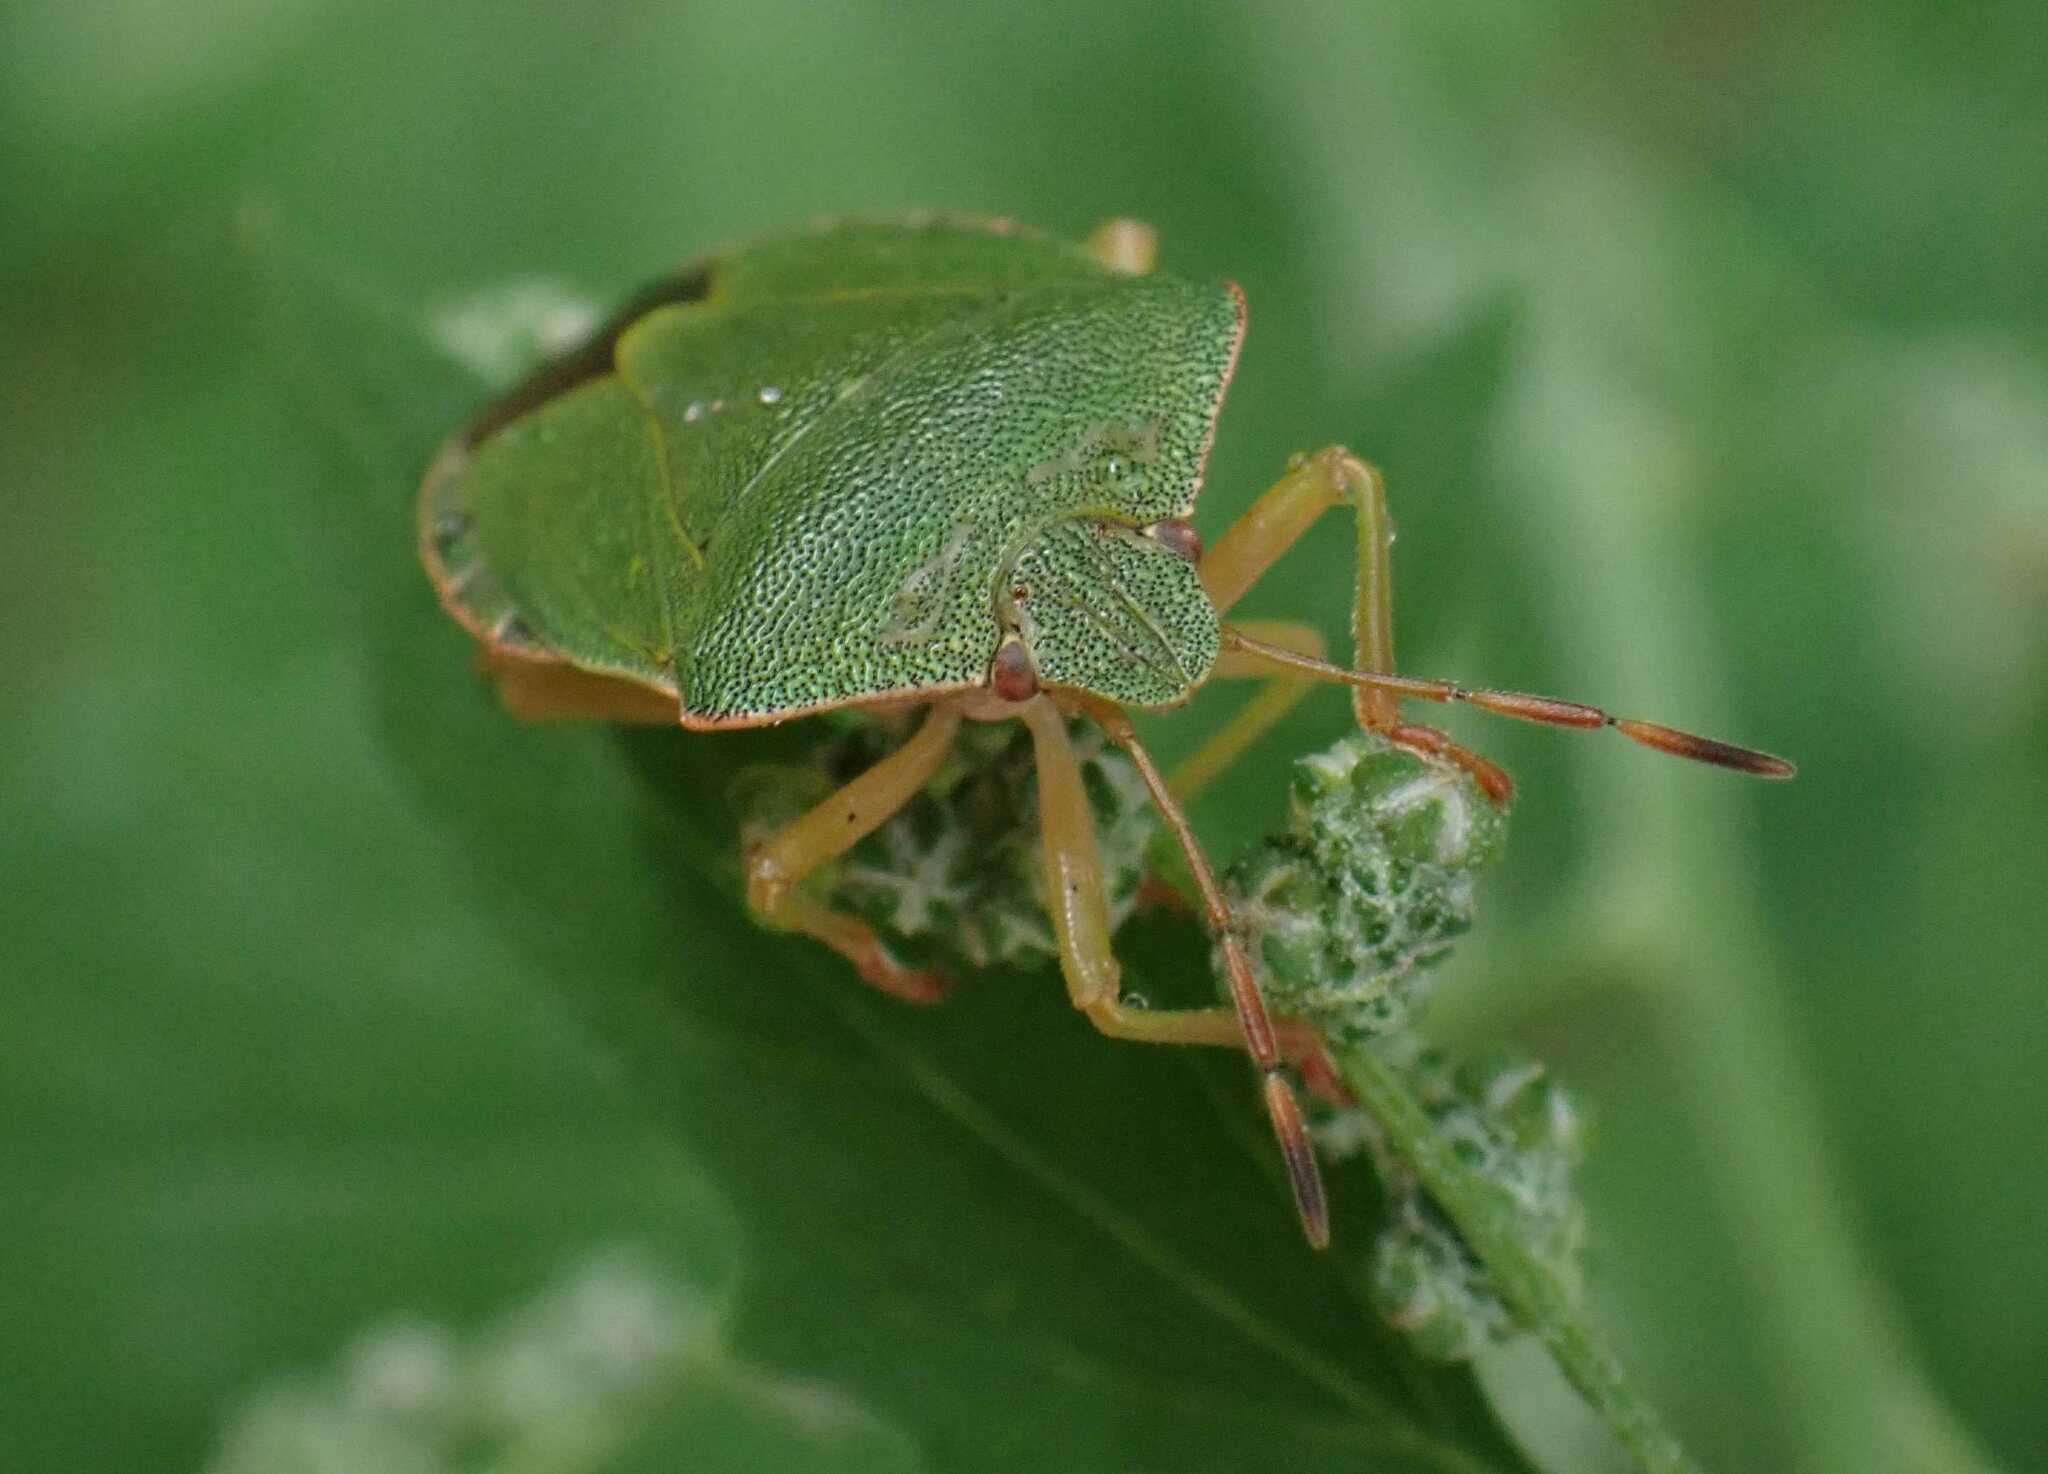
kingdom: Animalia
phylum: Arthropoda
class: Insecta
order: Hemiptera
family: Pentatomidae
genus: Palomena
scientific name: Palomena prasina
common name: Green shieldbug
